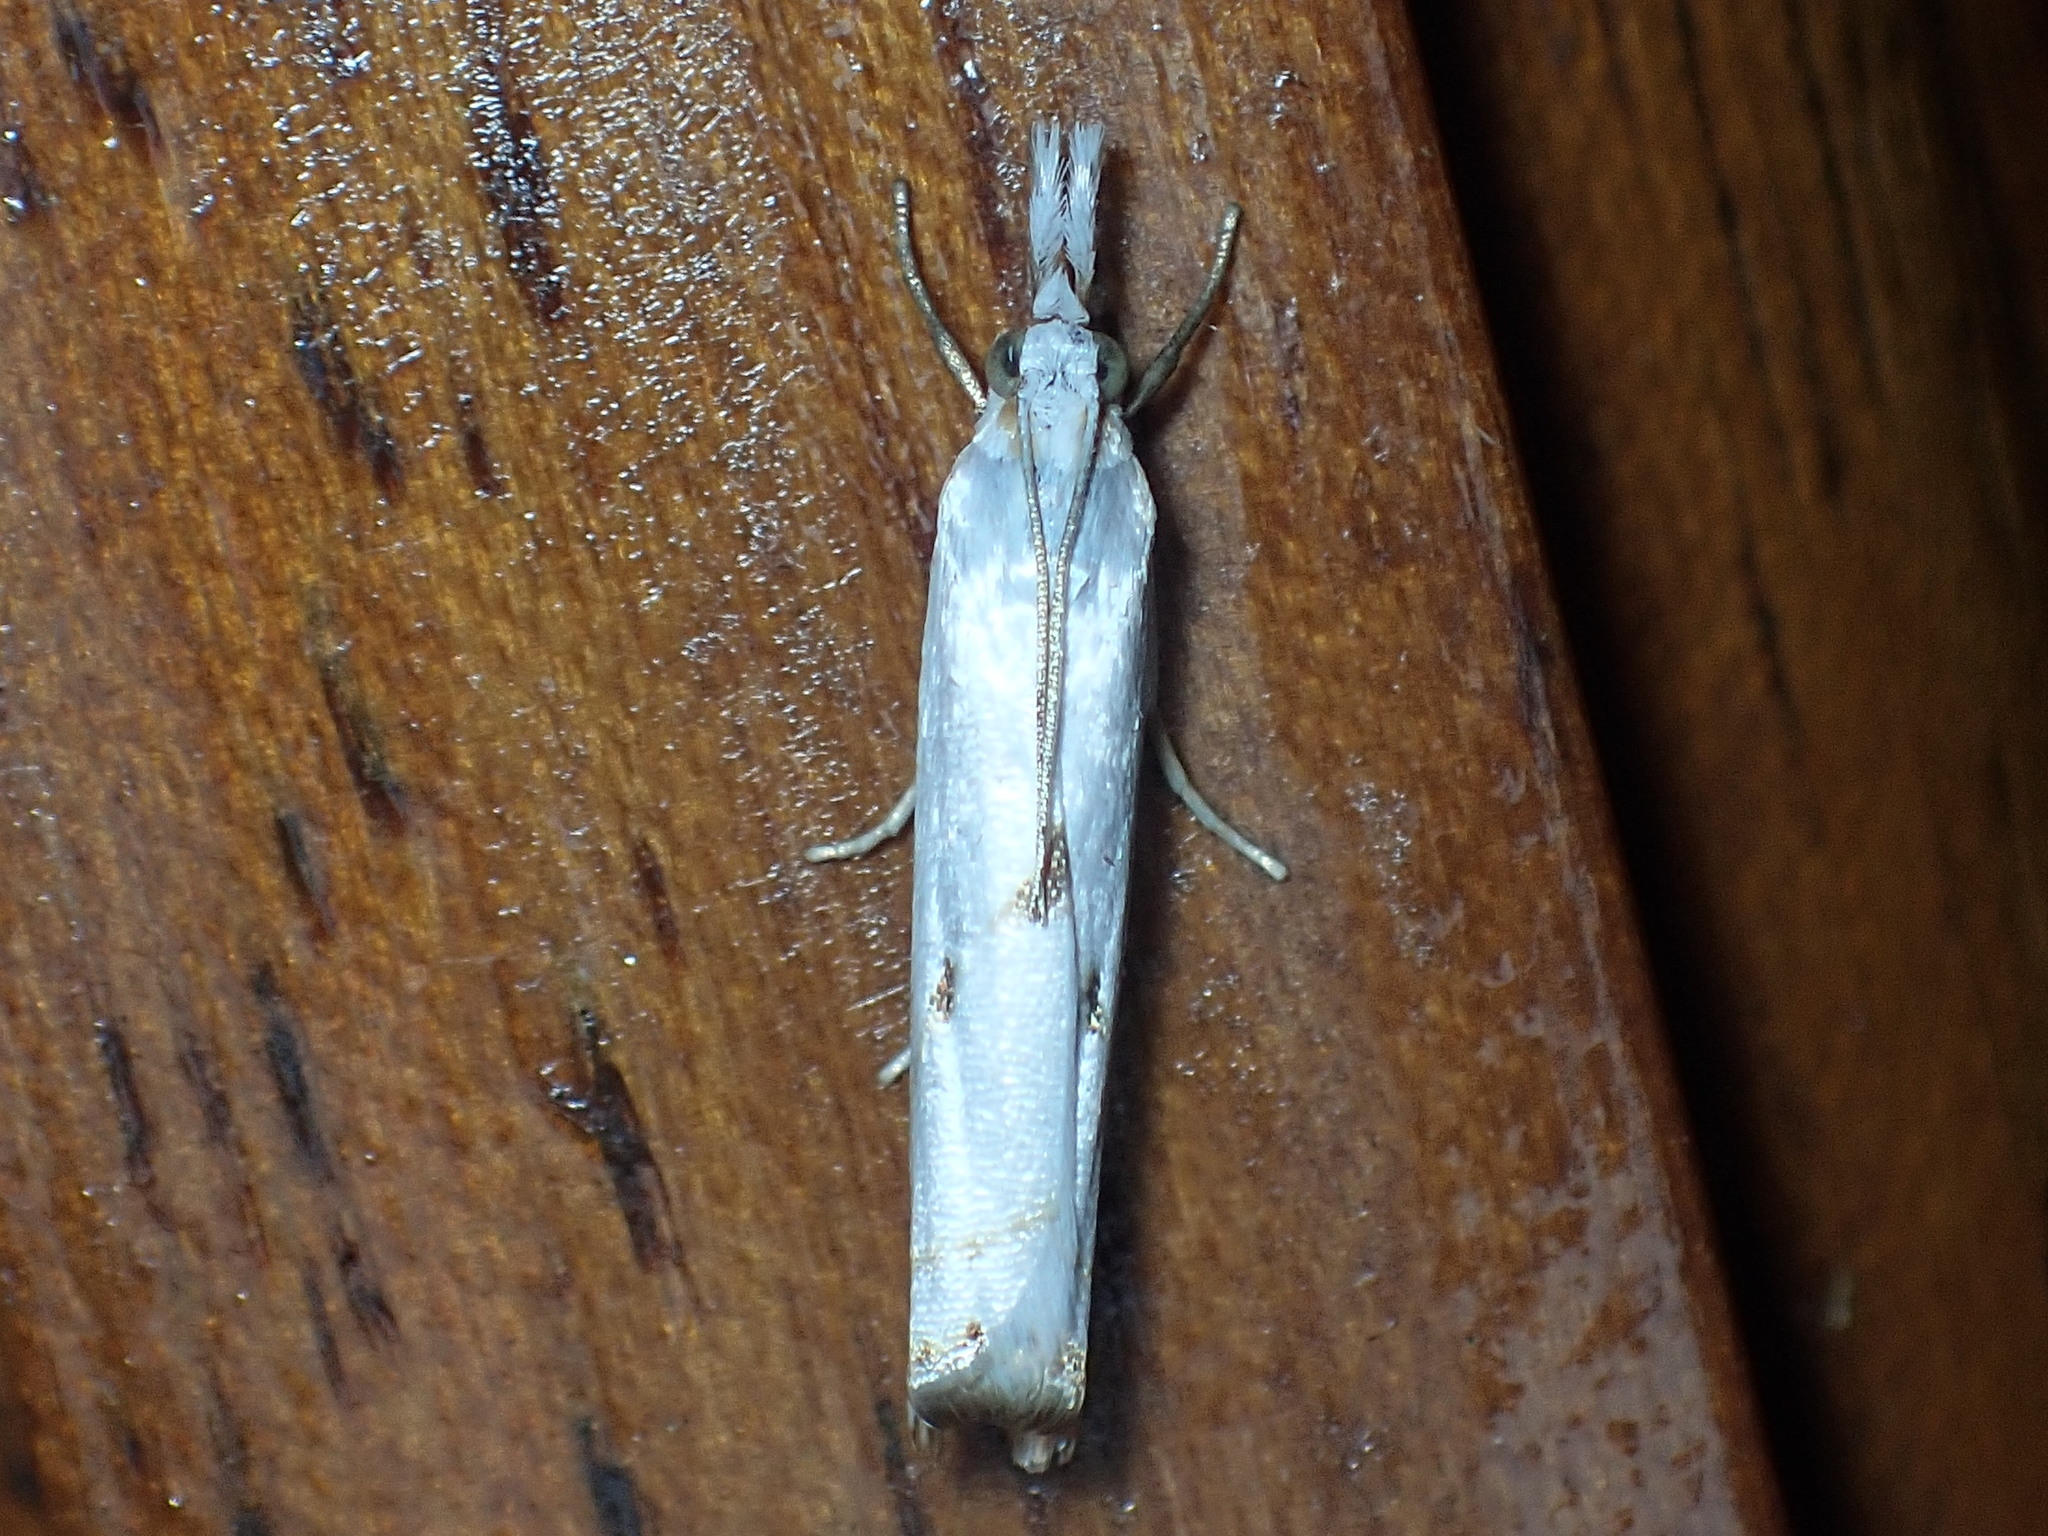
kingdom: Animalia
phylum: Arthropoda
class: Insecta
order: Lepidoptera
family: Crambidae
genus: Microcrambus
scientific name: Microcrambus biguttellus
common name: Gold-stripe grass-veneer moth
